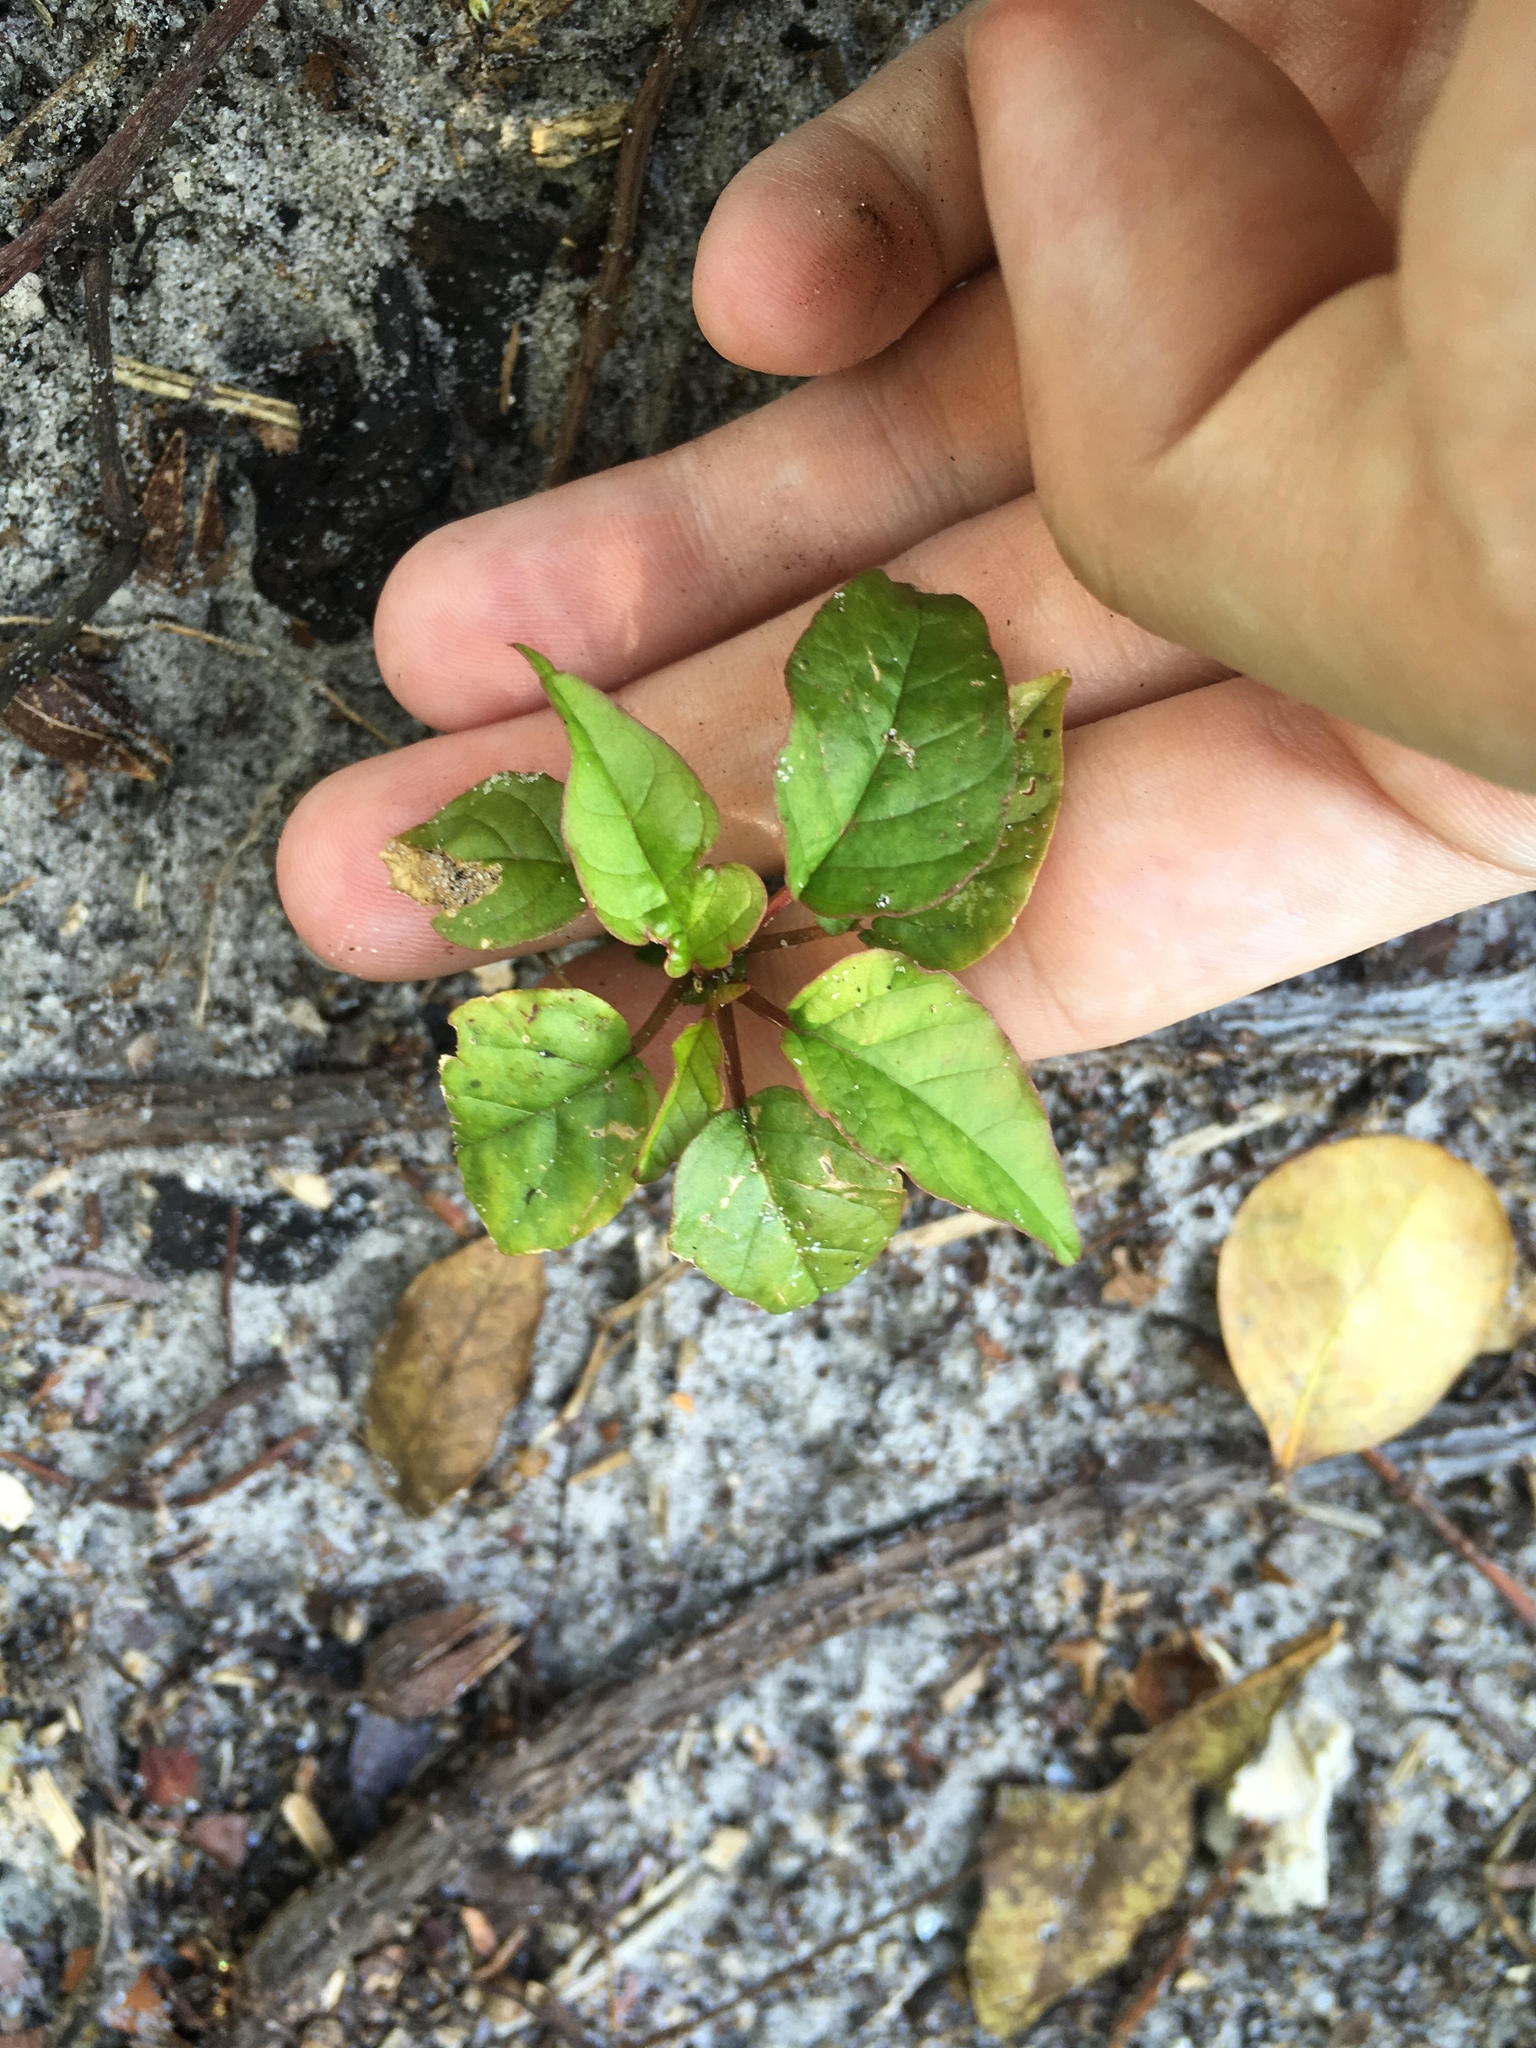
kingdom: Plantae
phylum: Tracheophyta
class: Magnoliopsida
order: Caryophyllales
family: Phytolaccaceae
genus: Rivina
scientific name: Rivina humilis
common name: Rougeplant
